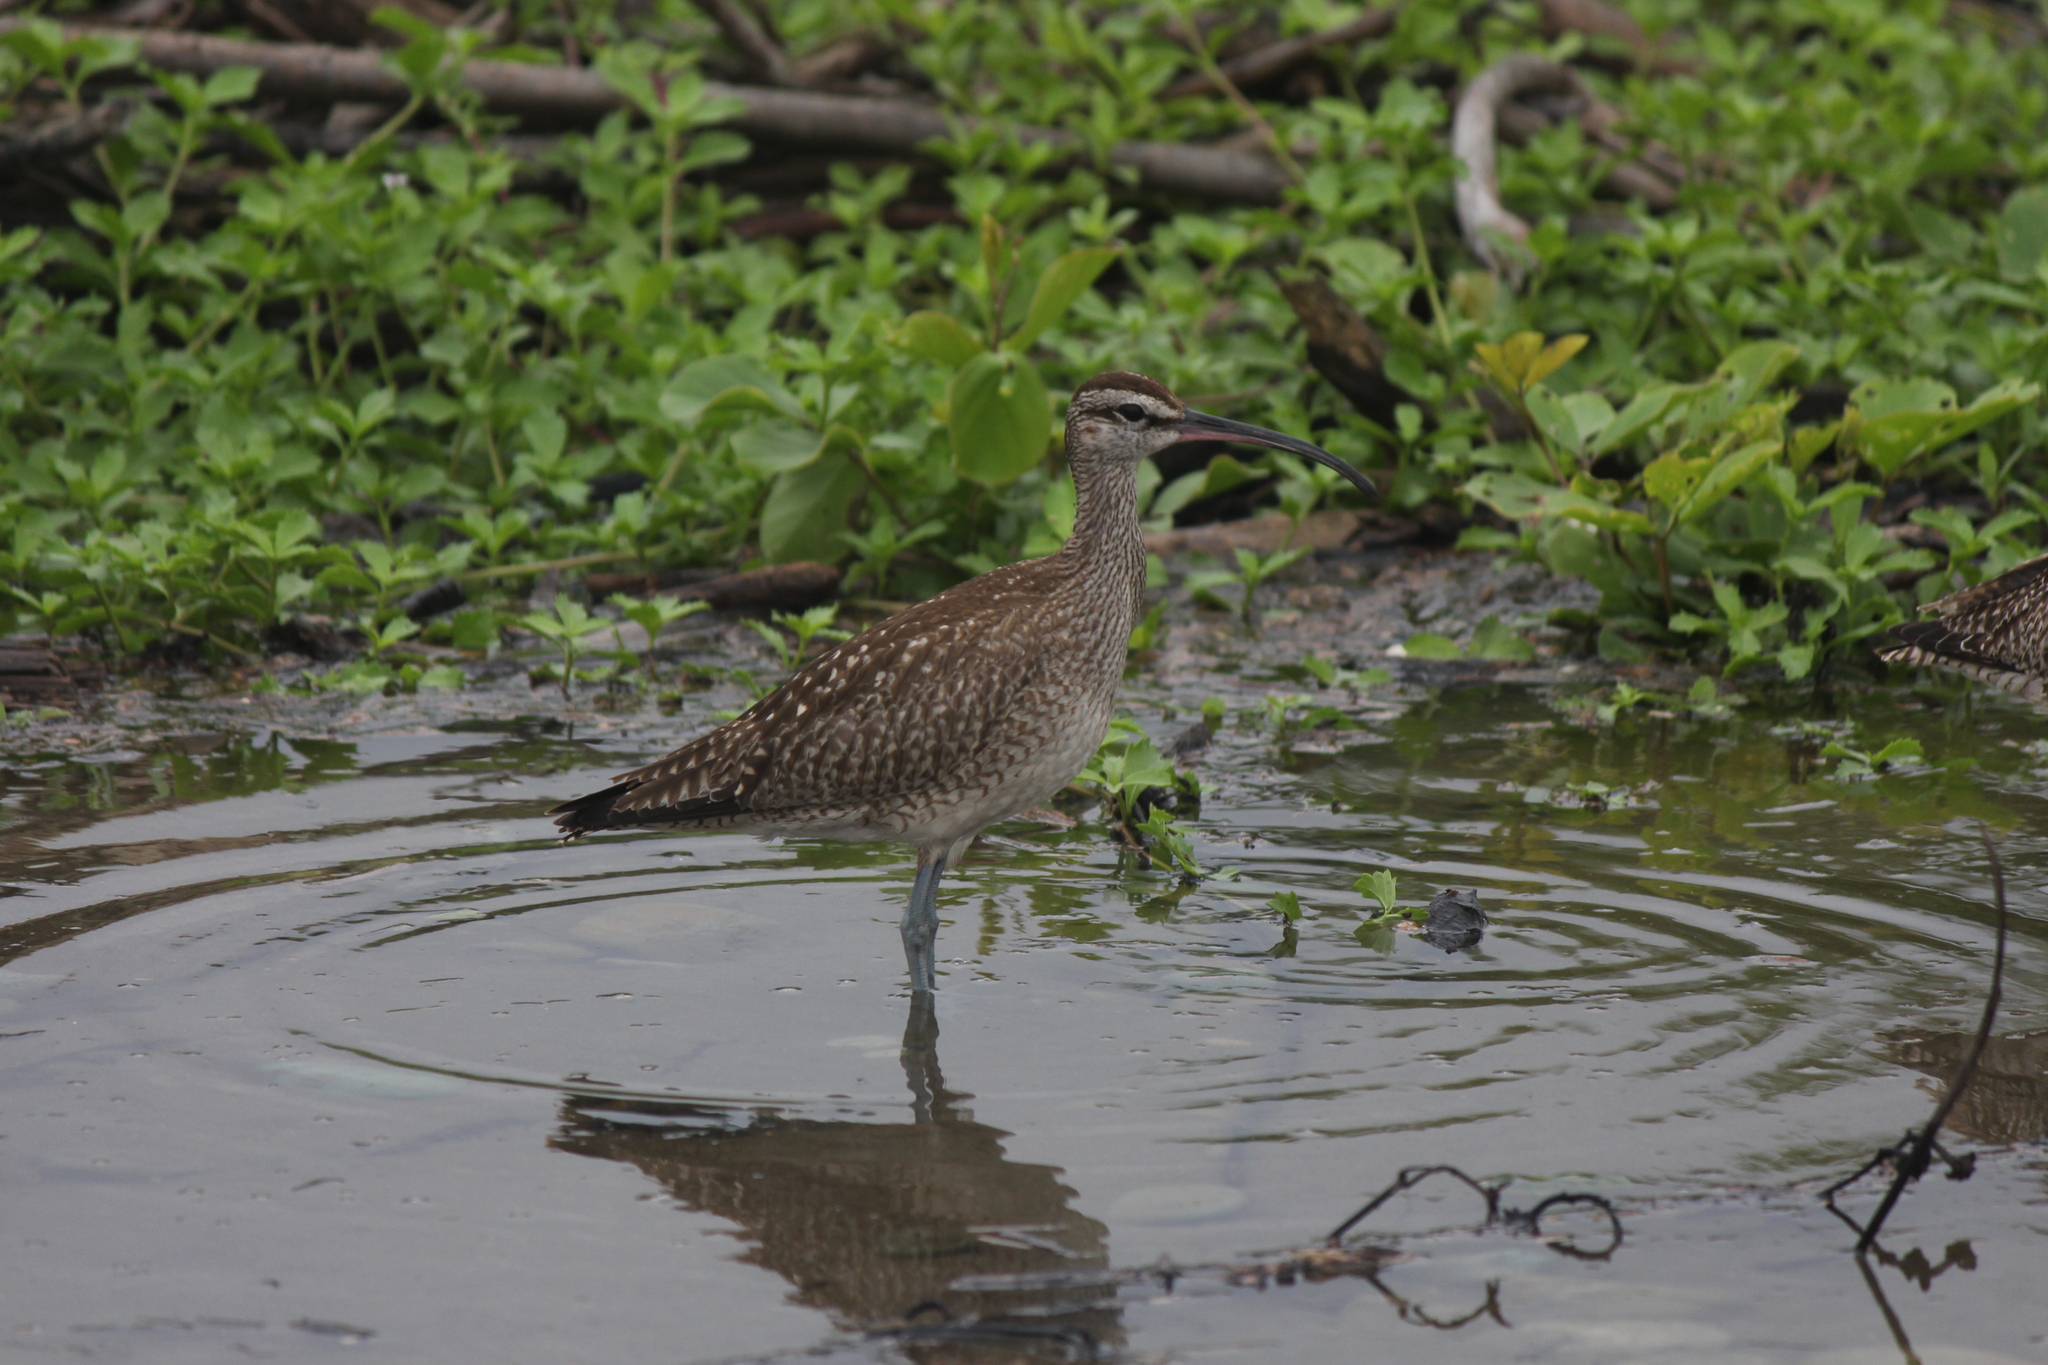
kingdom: Animalia
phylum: Chordata
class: Aves
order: Charadriiformes
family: Scolopacidae
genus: Numenius
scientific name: Numenius phaeopus
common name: Whimbrel
